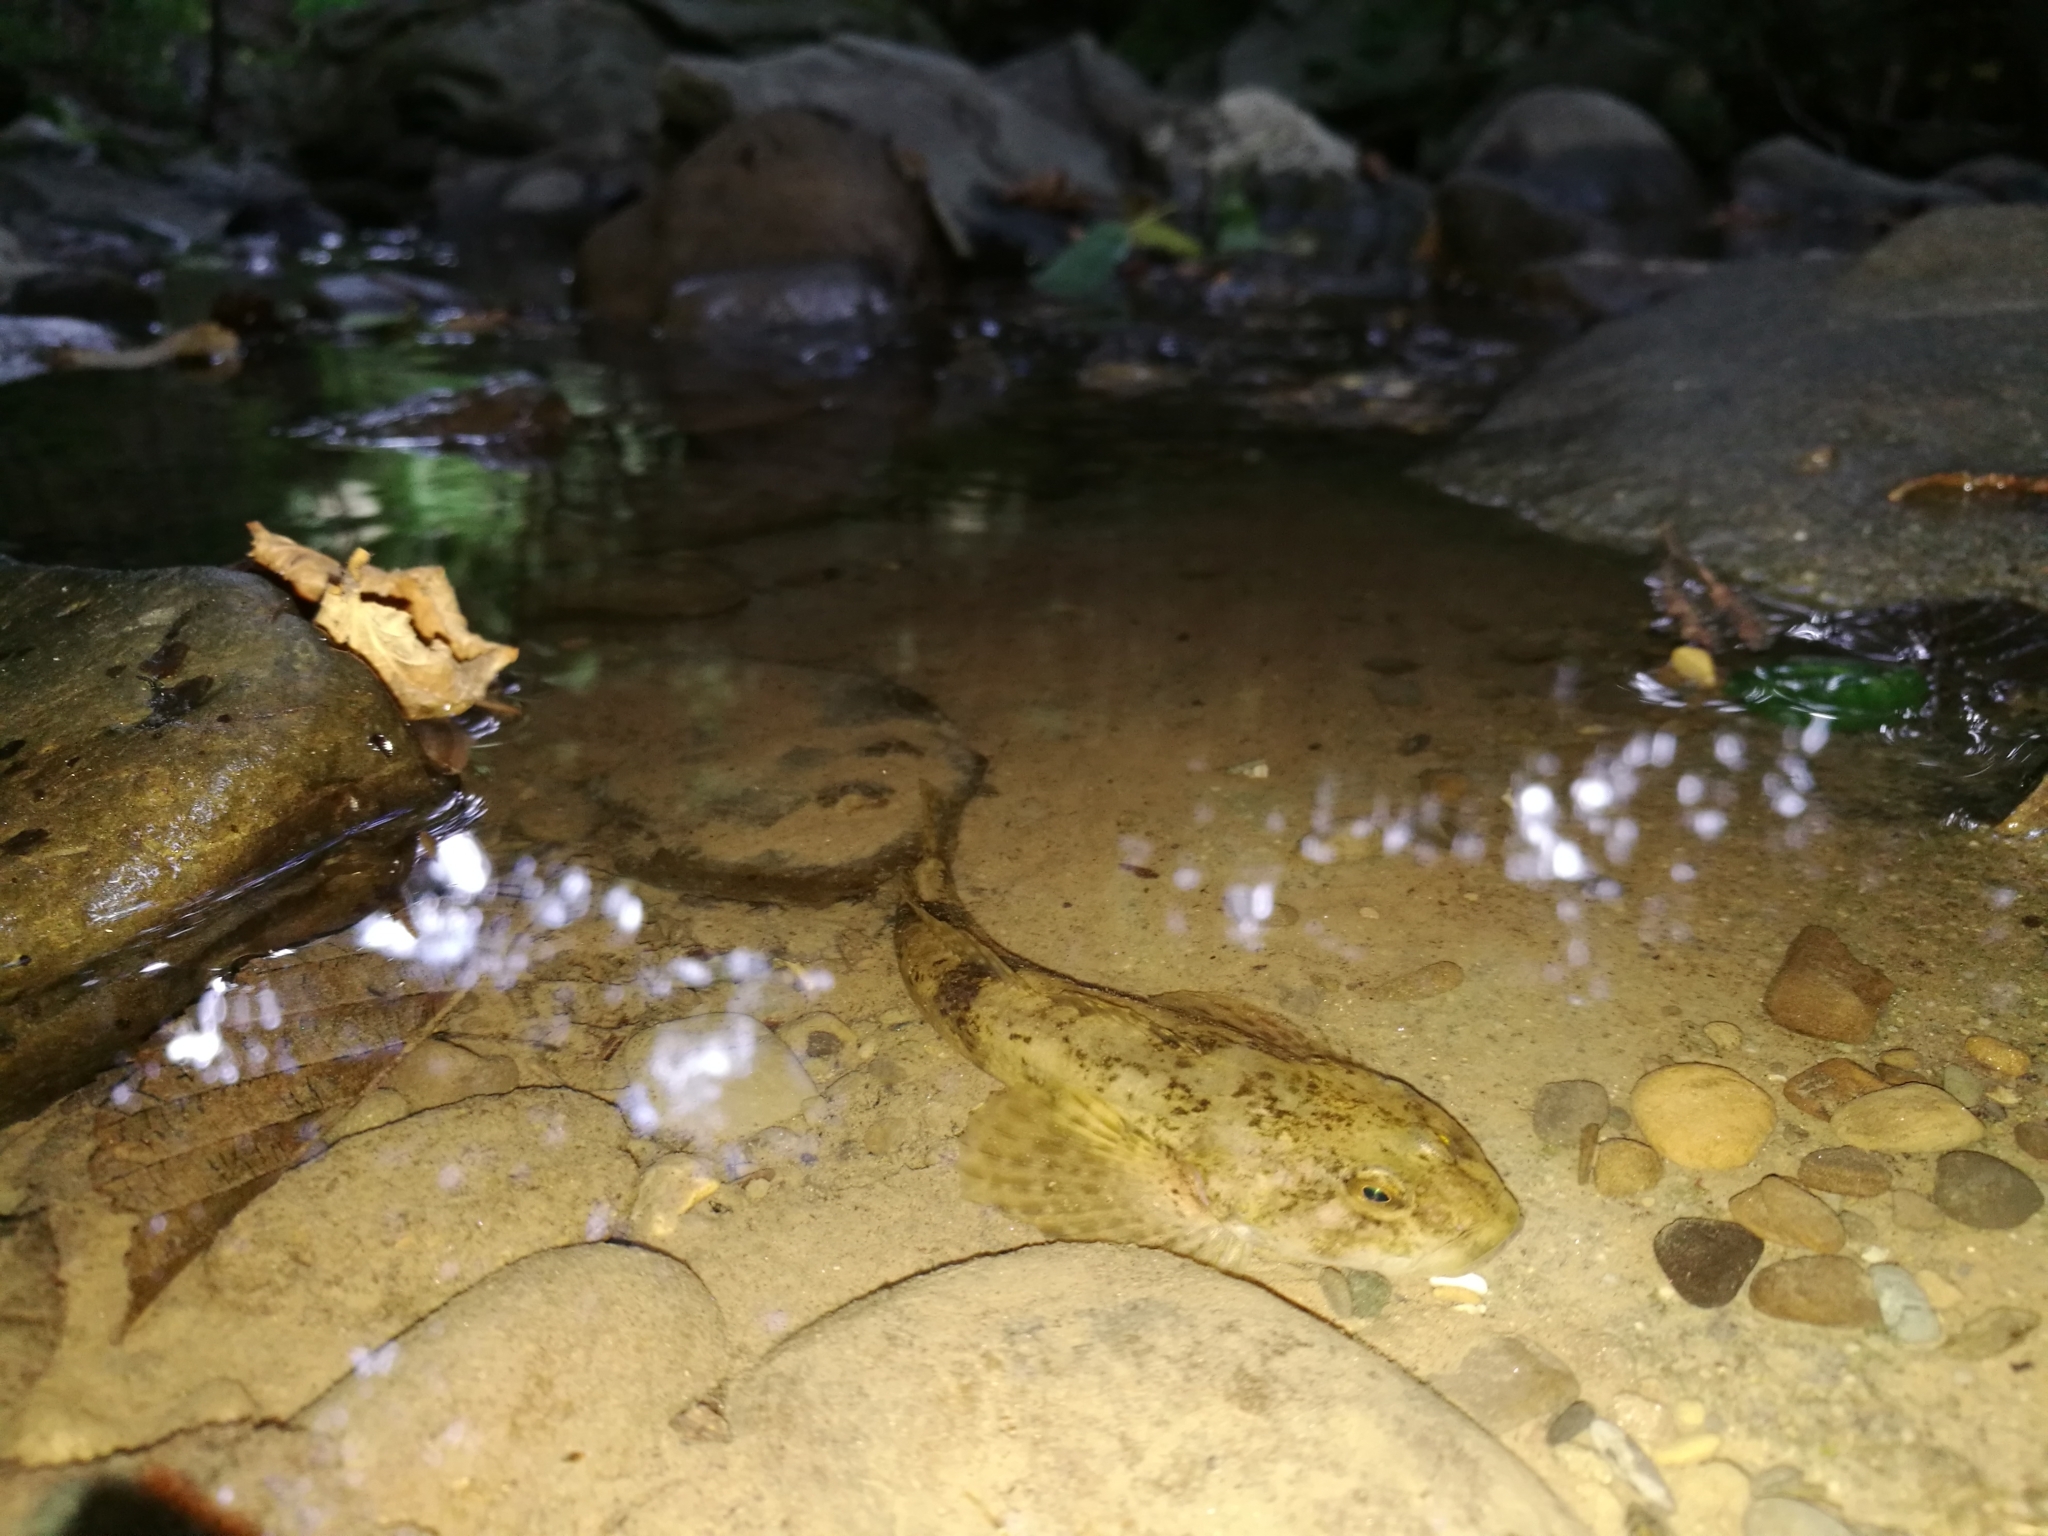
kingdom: Animalia
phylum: Chordata
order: Scorpaeniformes
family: Cottidae
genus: Cottus
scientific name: Cottus gobio
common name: Bullhead
